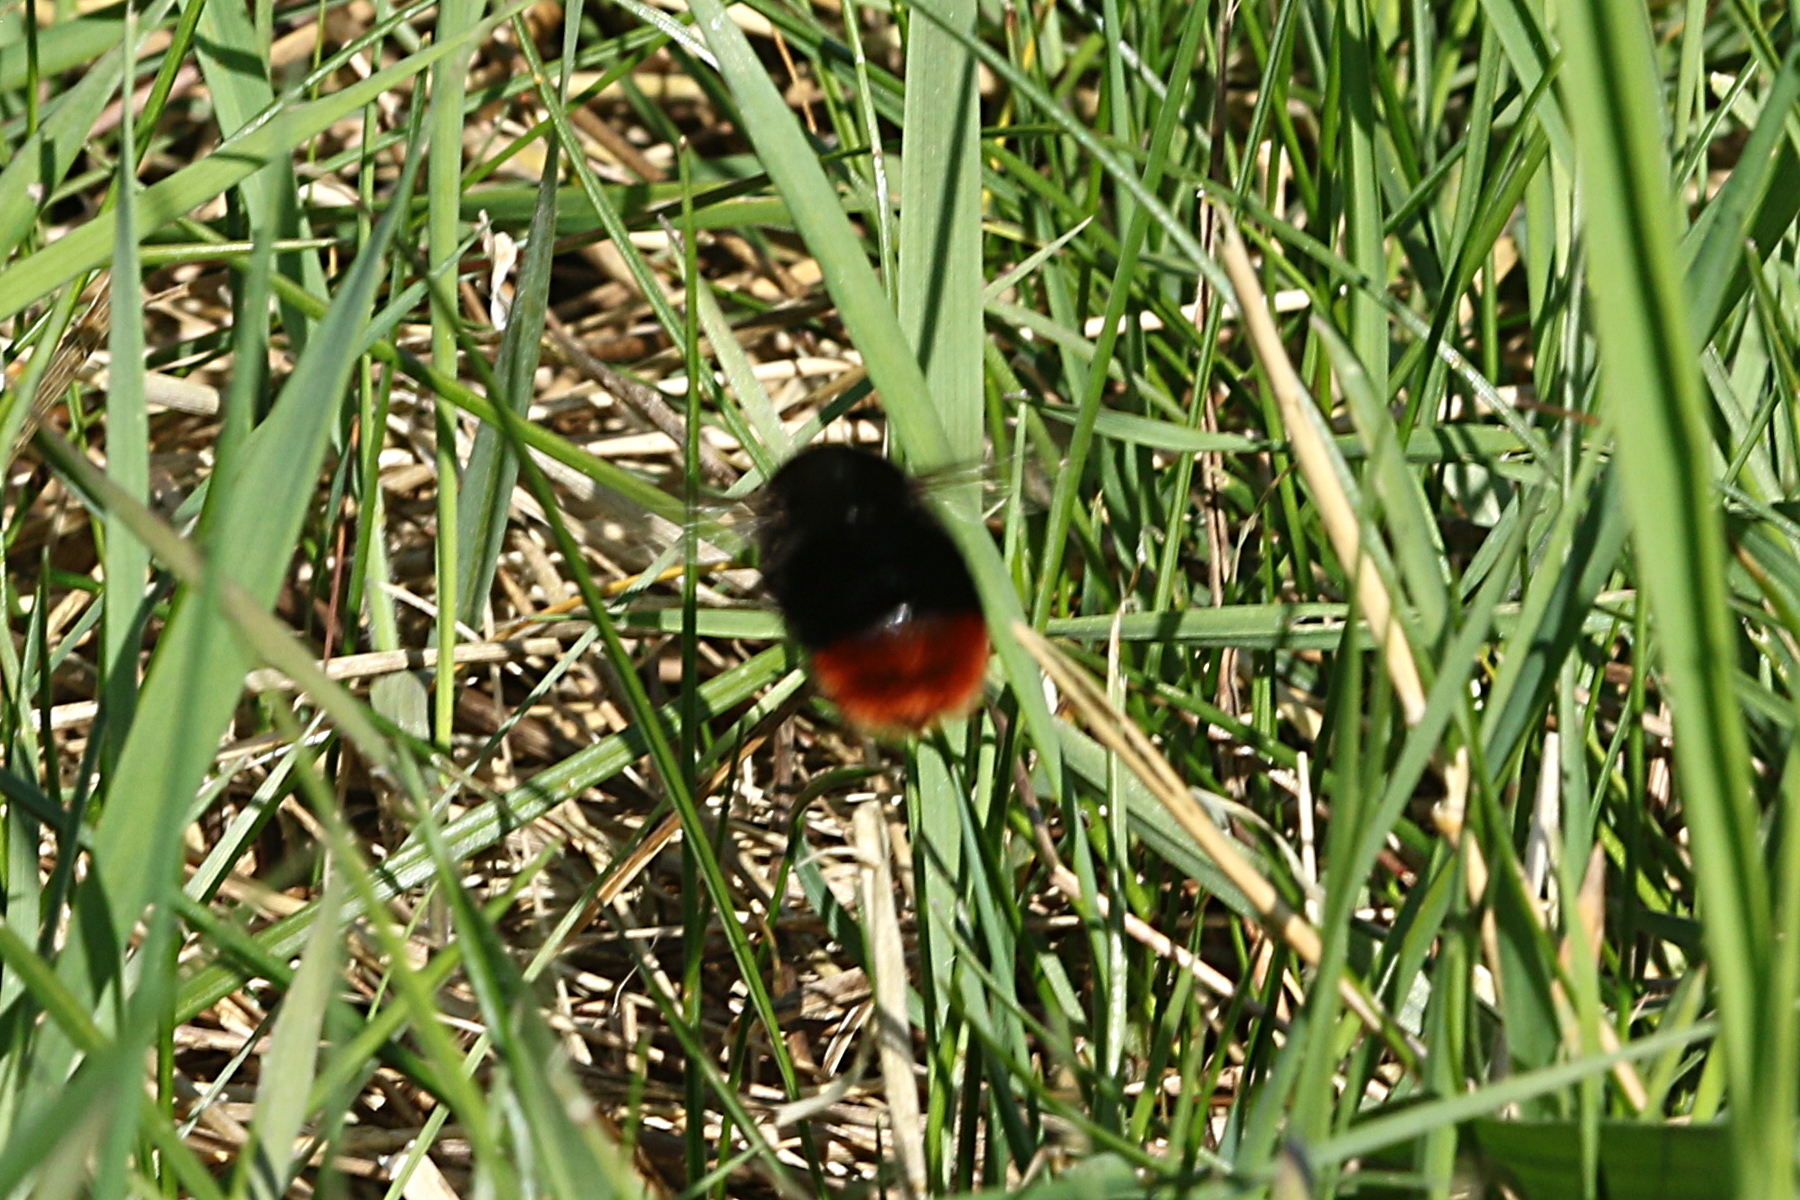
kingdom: Animalia
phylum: Arthropoda
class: Insecta
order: Hymenoptera
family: Apidae
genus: Bombus
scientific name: Bombus lapidarius
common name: Large red-tailed humble-bee
